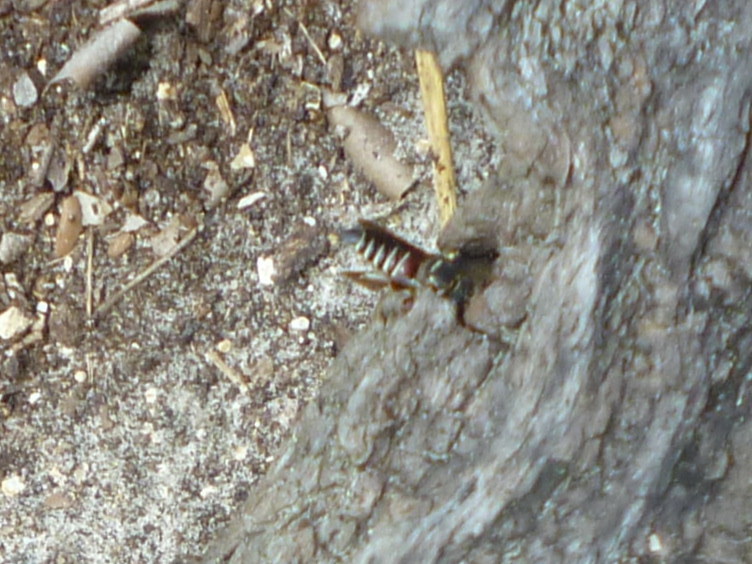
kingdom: Animalia
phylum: Arthropoda
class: Insecta
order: Hymenoptera
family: Megachilidae
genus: Coelioxys
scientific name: Coelioxys slossoni
